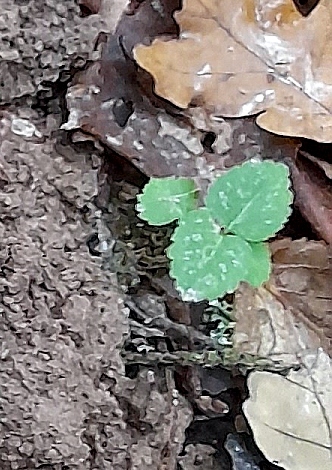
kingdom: Plantae
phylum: Tracheophyta
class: Magnoliopsida
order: Lamiales
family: Lamiaceae
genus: Lamium
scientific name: Lamium galeobdolon
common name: Yellow archangel
